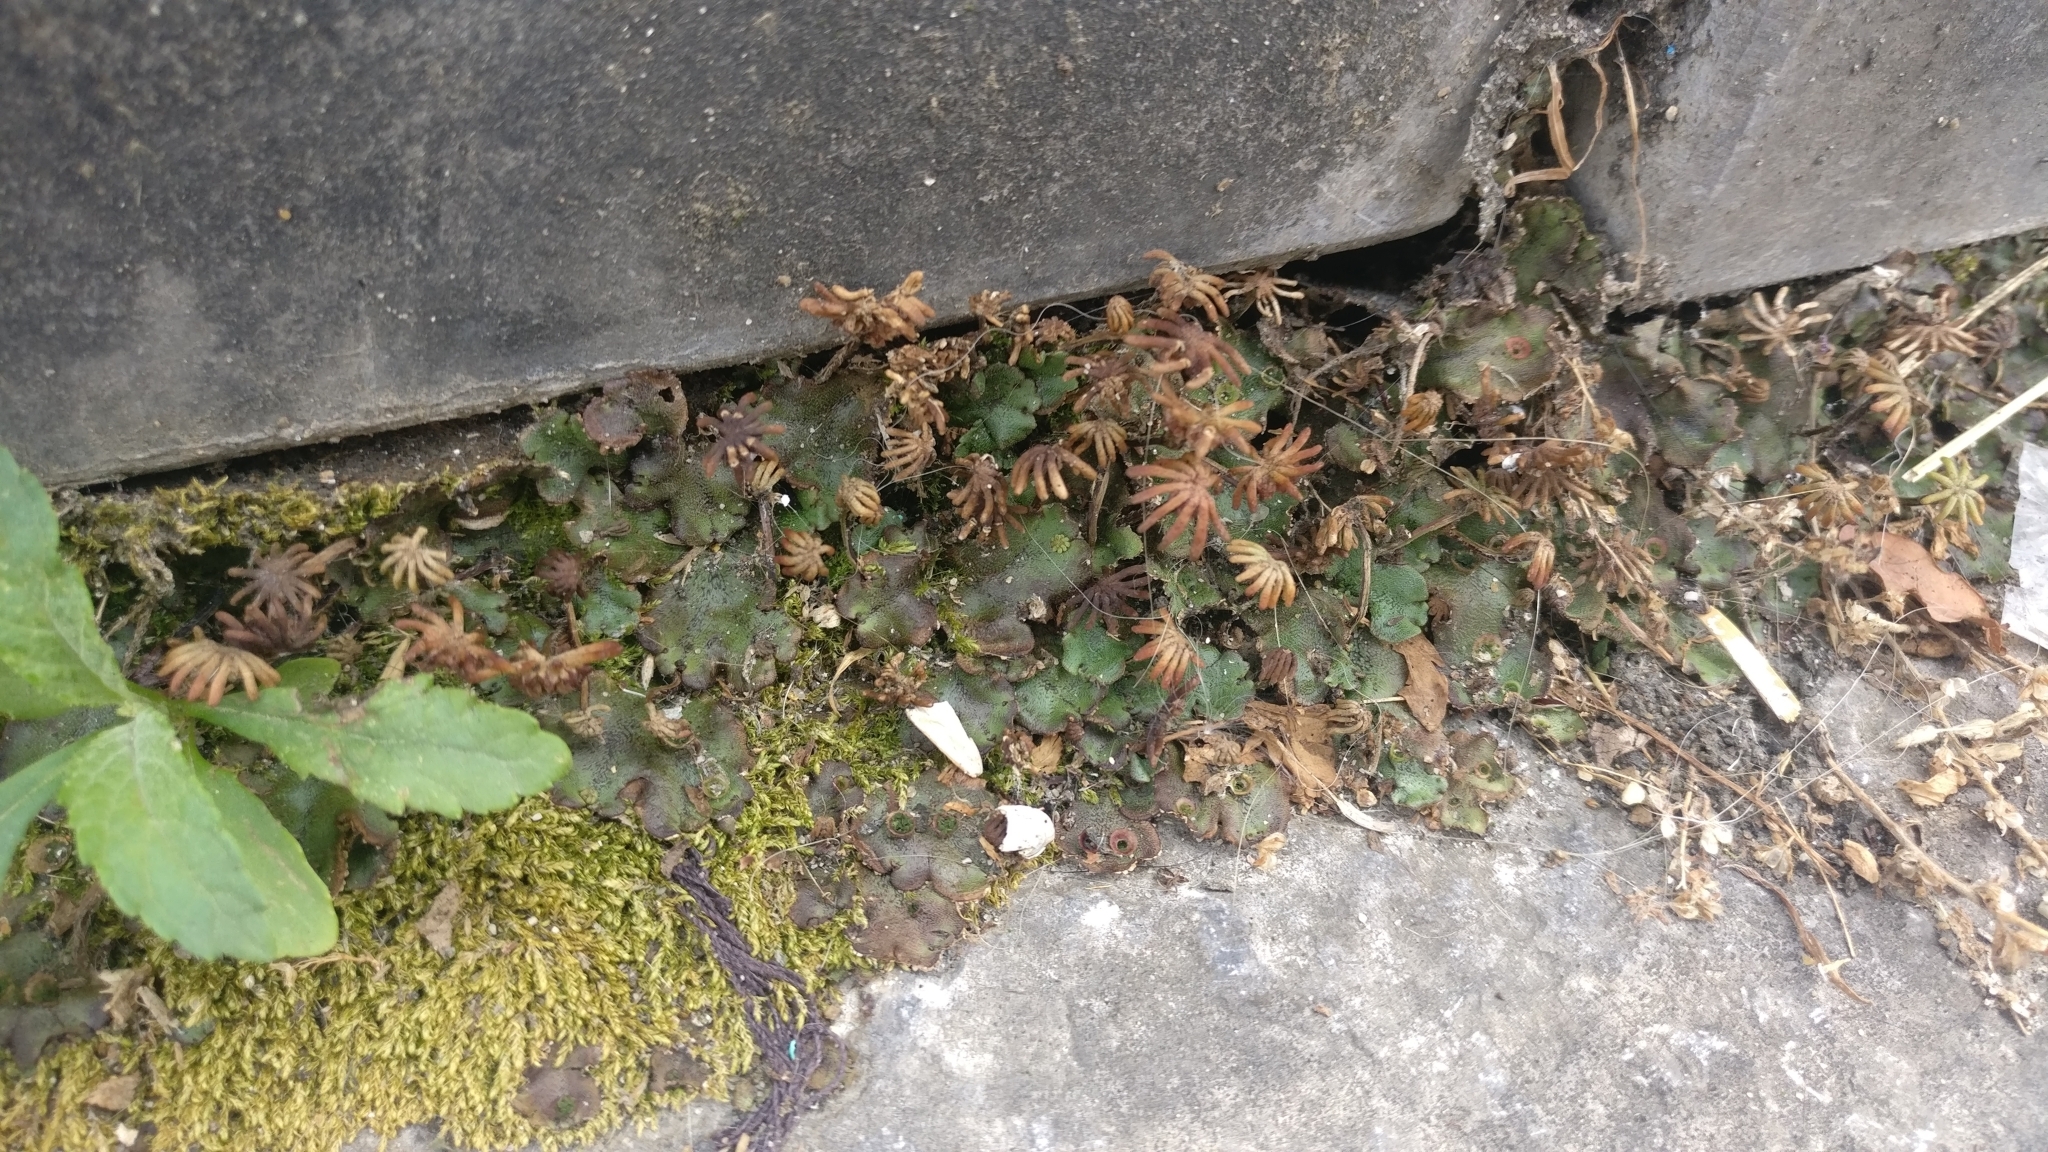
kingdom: Plantae
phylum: Marchantiophyta
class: Marchantiopsida
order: Marchantiales
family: Marchantiaceae
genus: Marchantia
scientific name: Marchantia polymorpha
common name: Common liverwort
